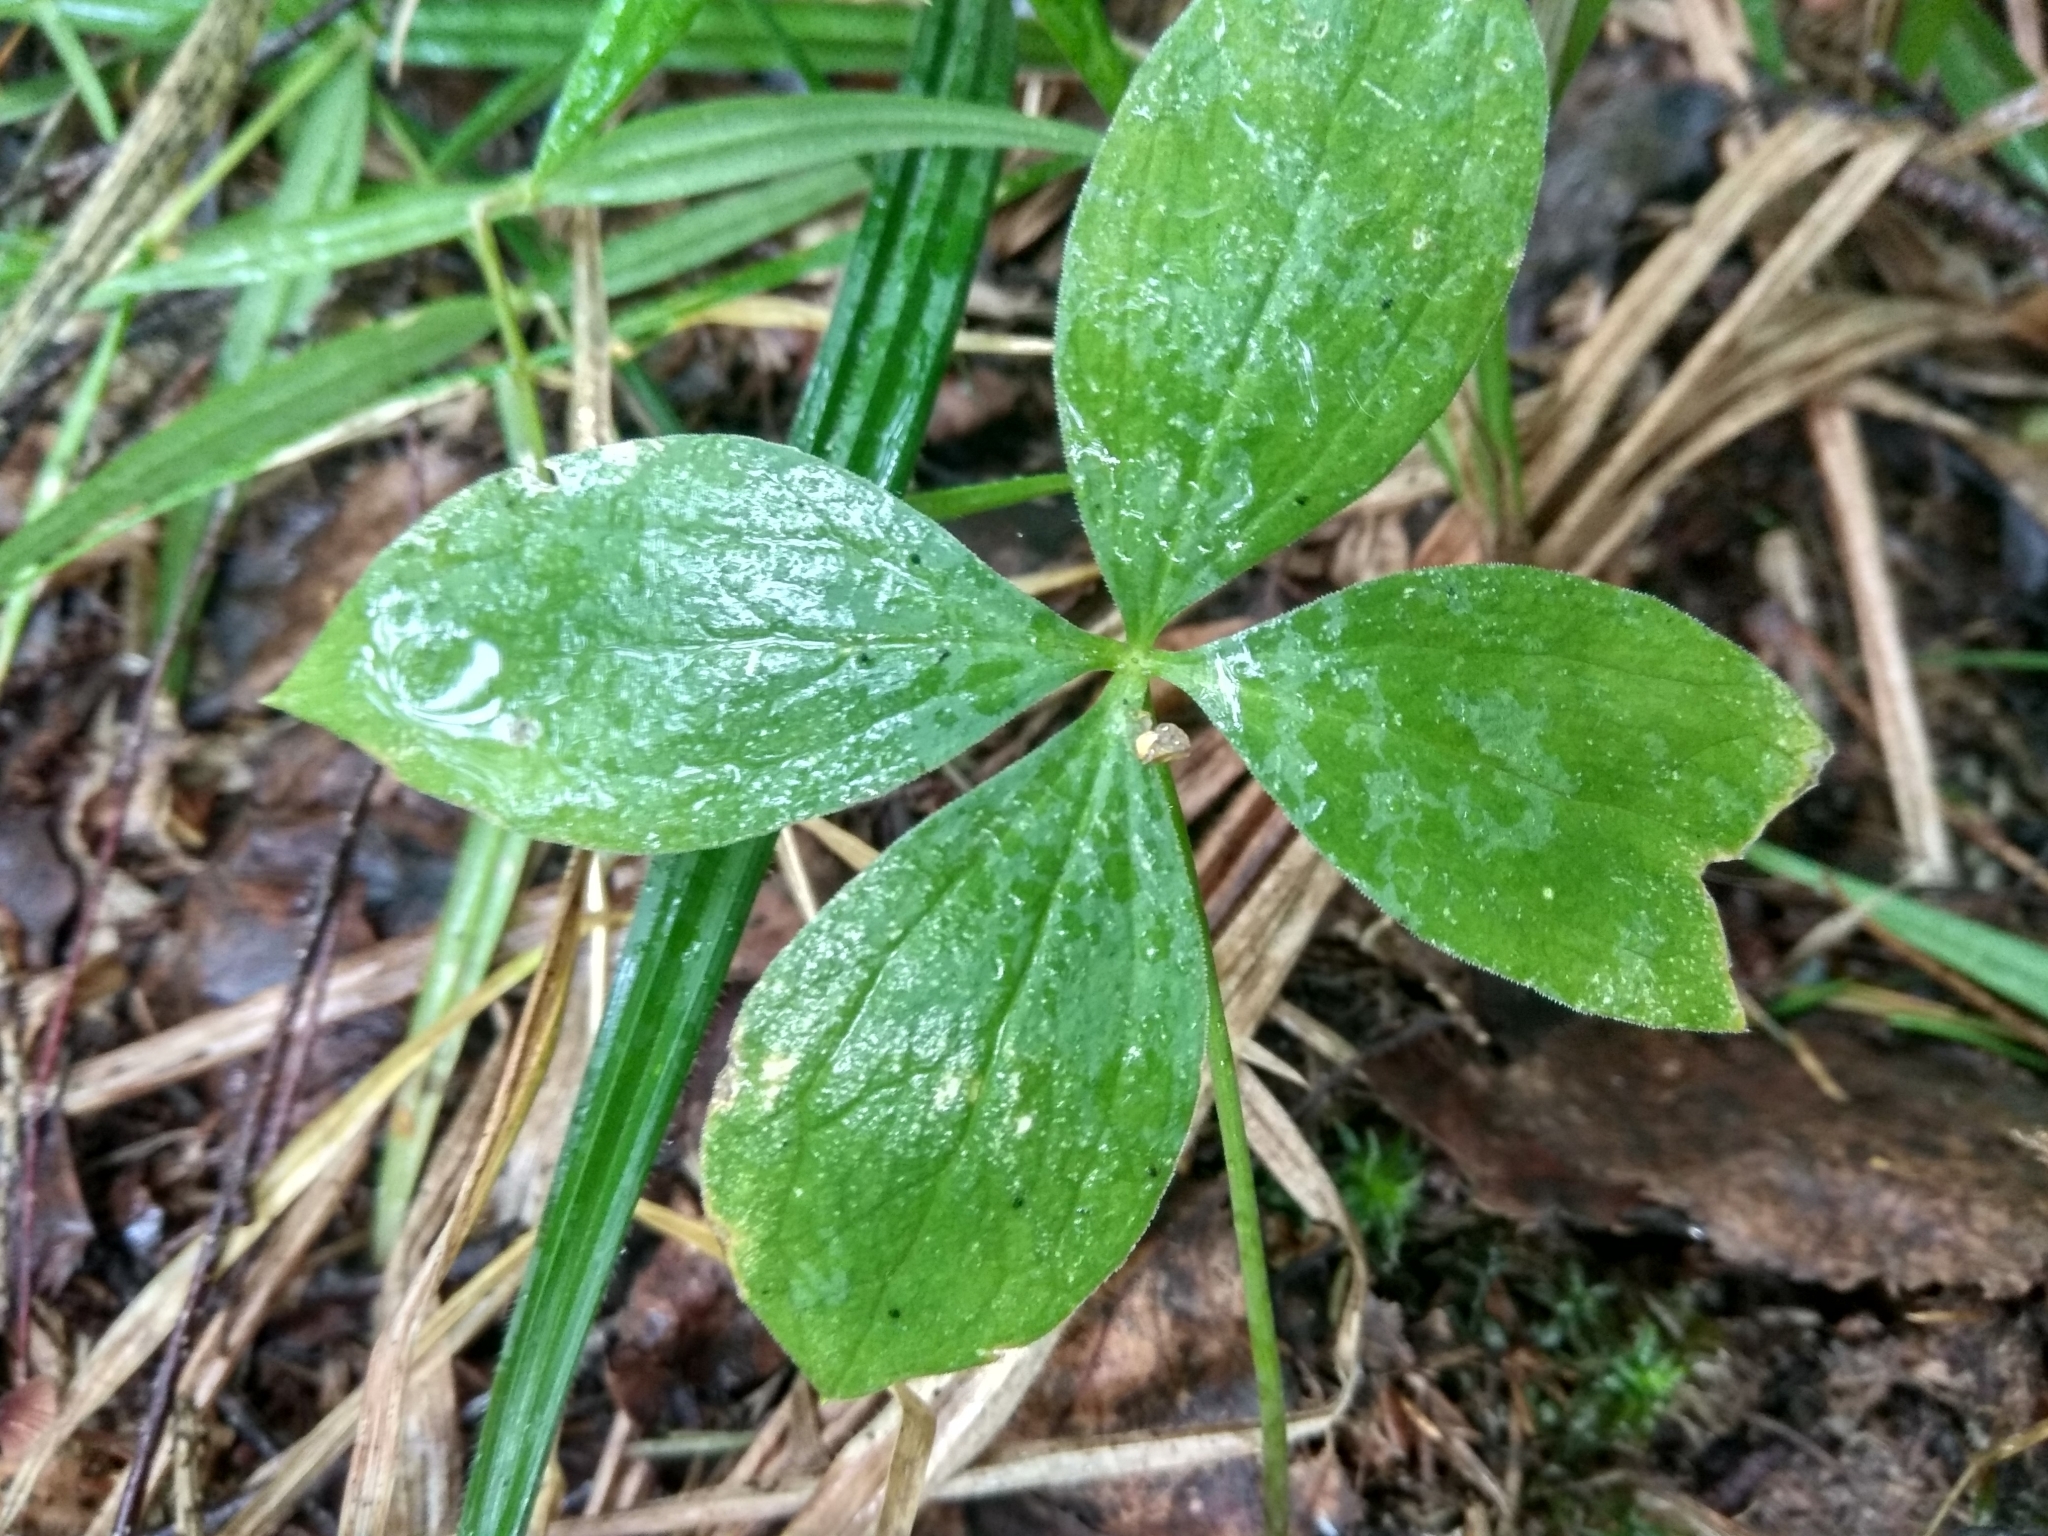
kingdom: Plantae
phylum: Tracheophyta
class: Liliopsida
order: Liliales
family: Melanthiaceae
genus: Paris
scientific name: Paris quadrifolia
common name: Herb-paris
